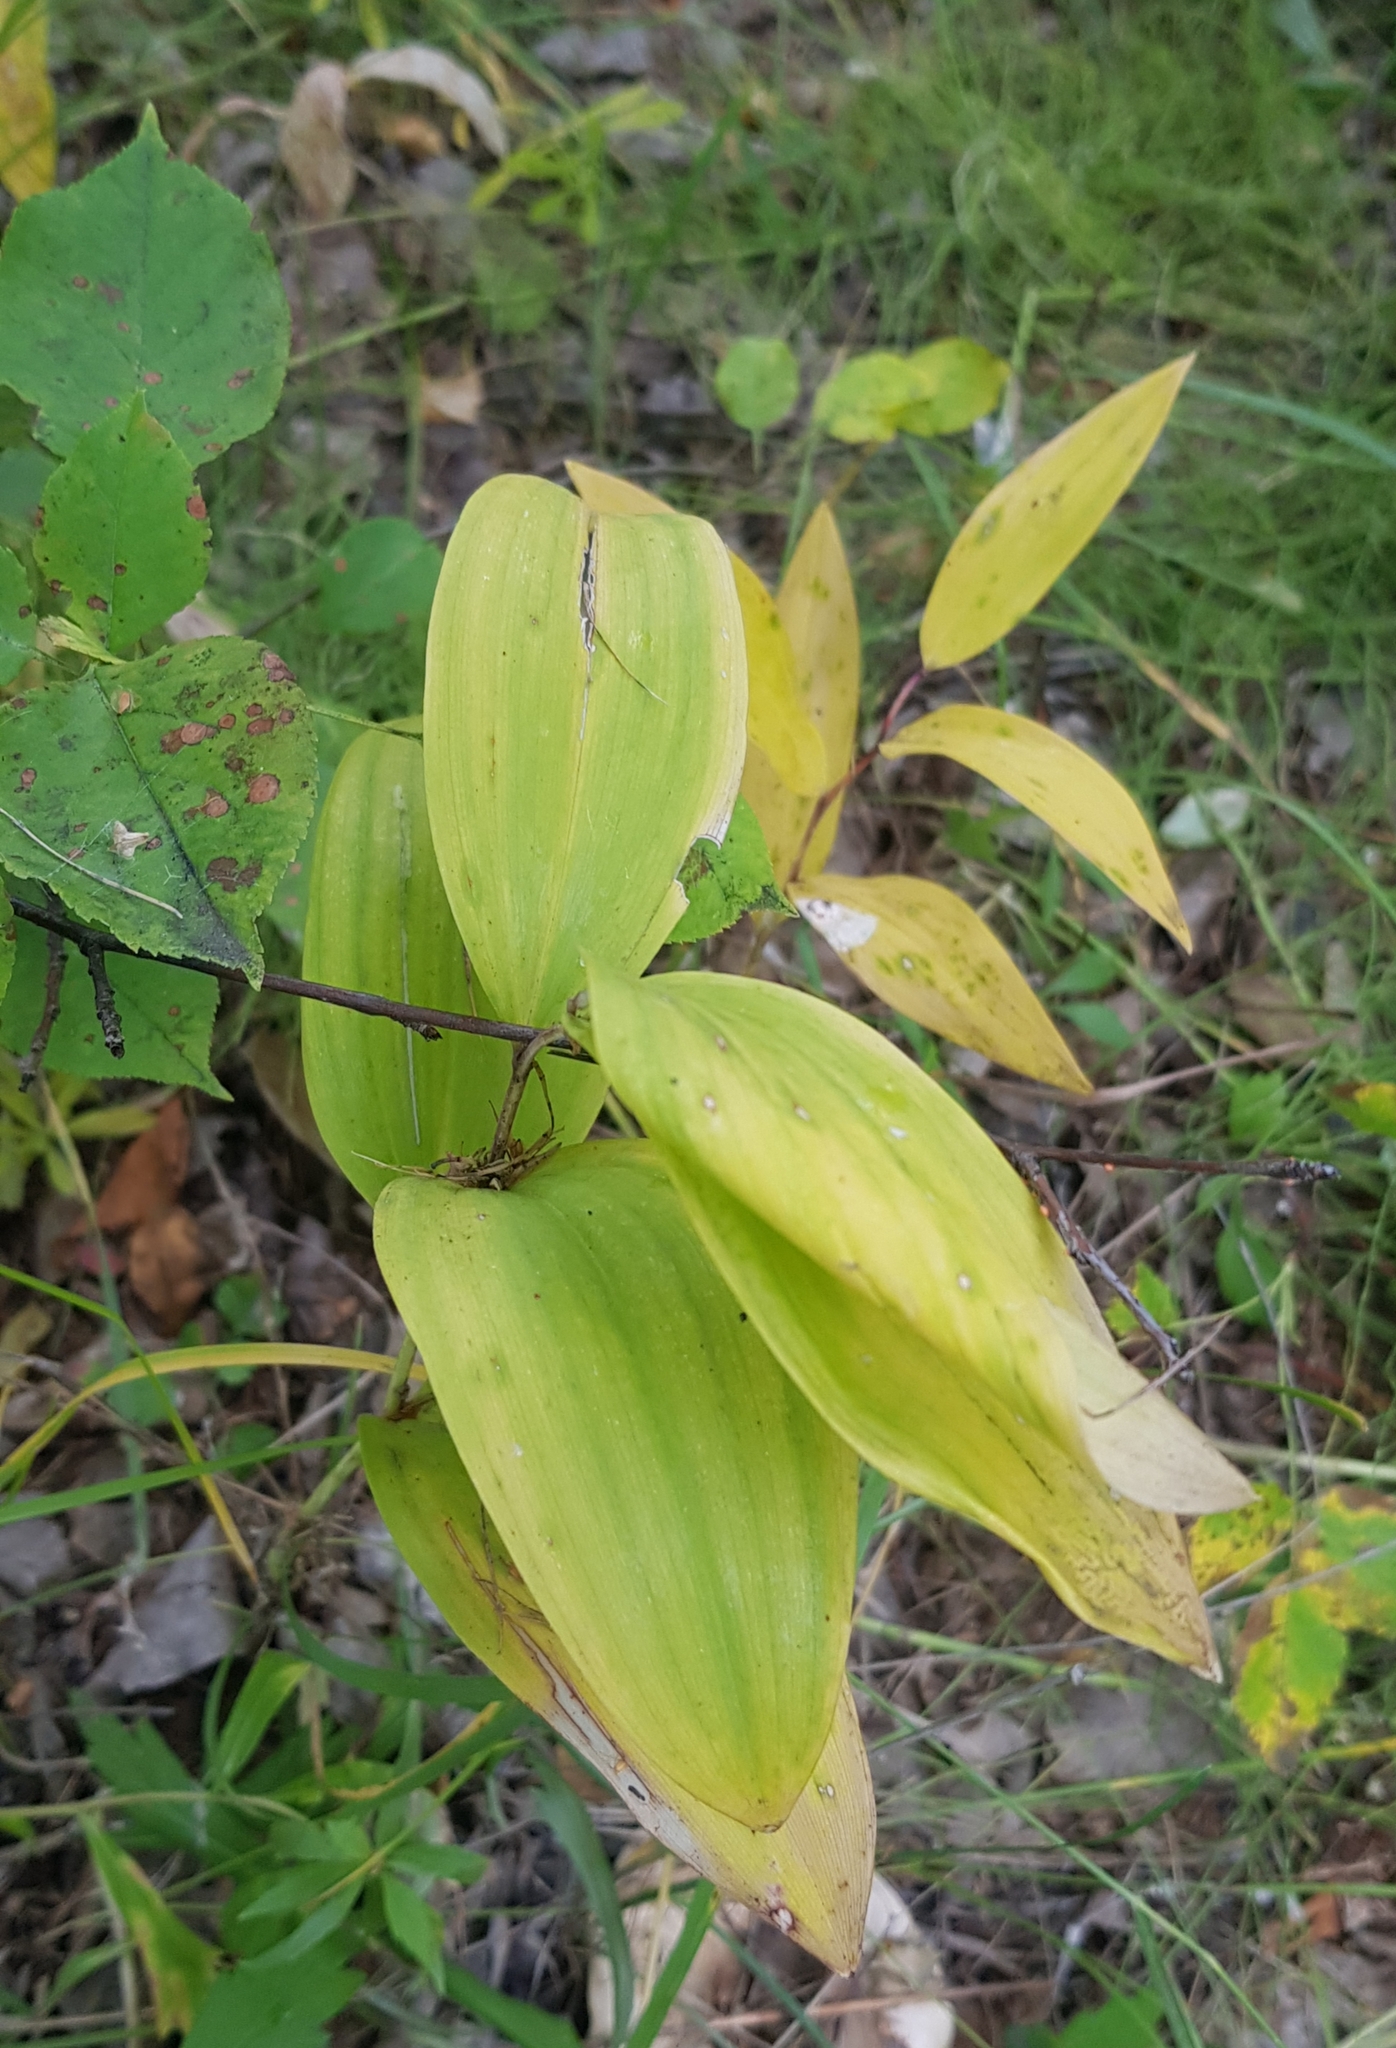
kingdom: Plantae
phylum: Tracheophyta
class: Liliopsida
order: Asparagales
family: Asparagaceae
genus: Polygonatum
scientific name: Polygonatum odoratum
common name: Angular solomon's-seal
